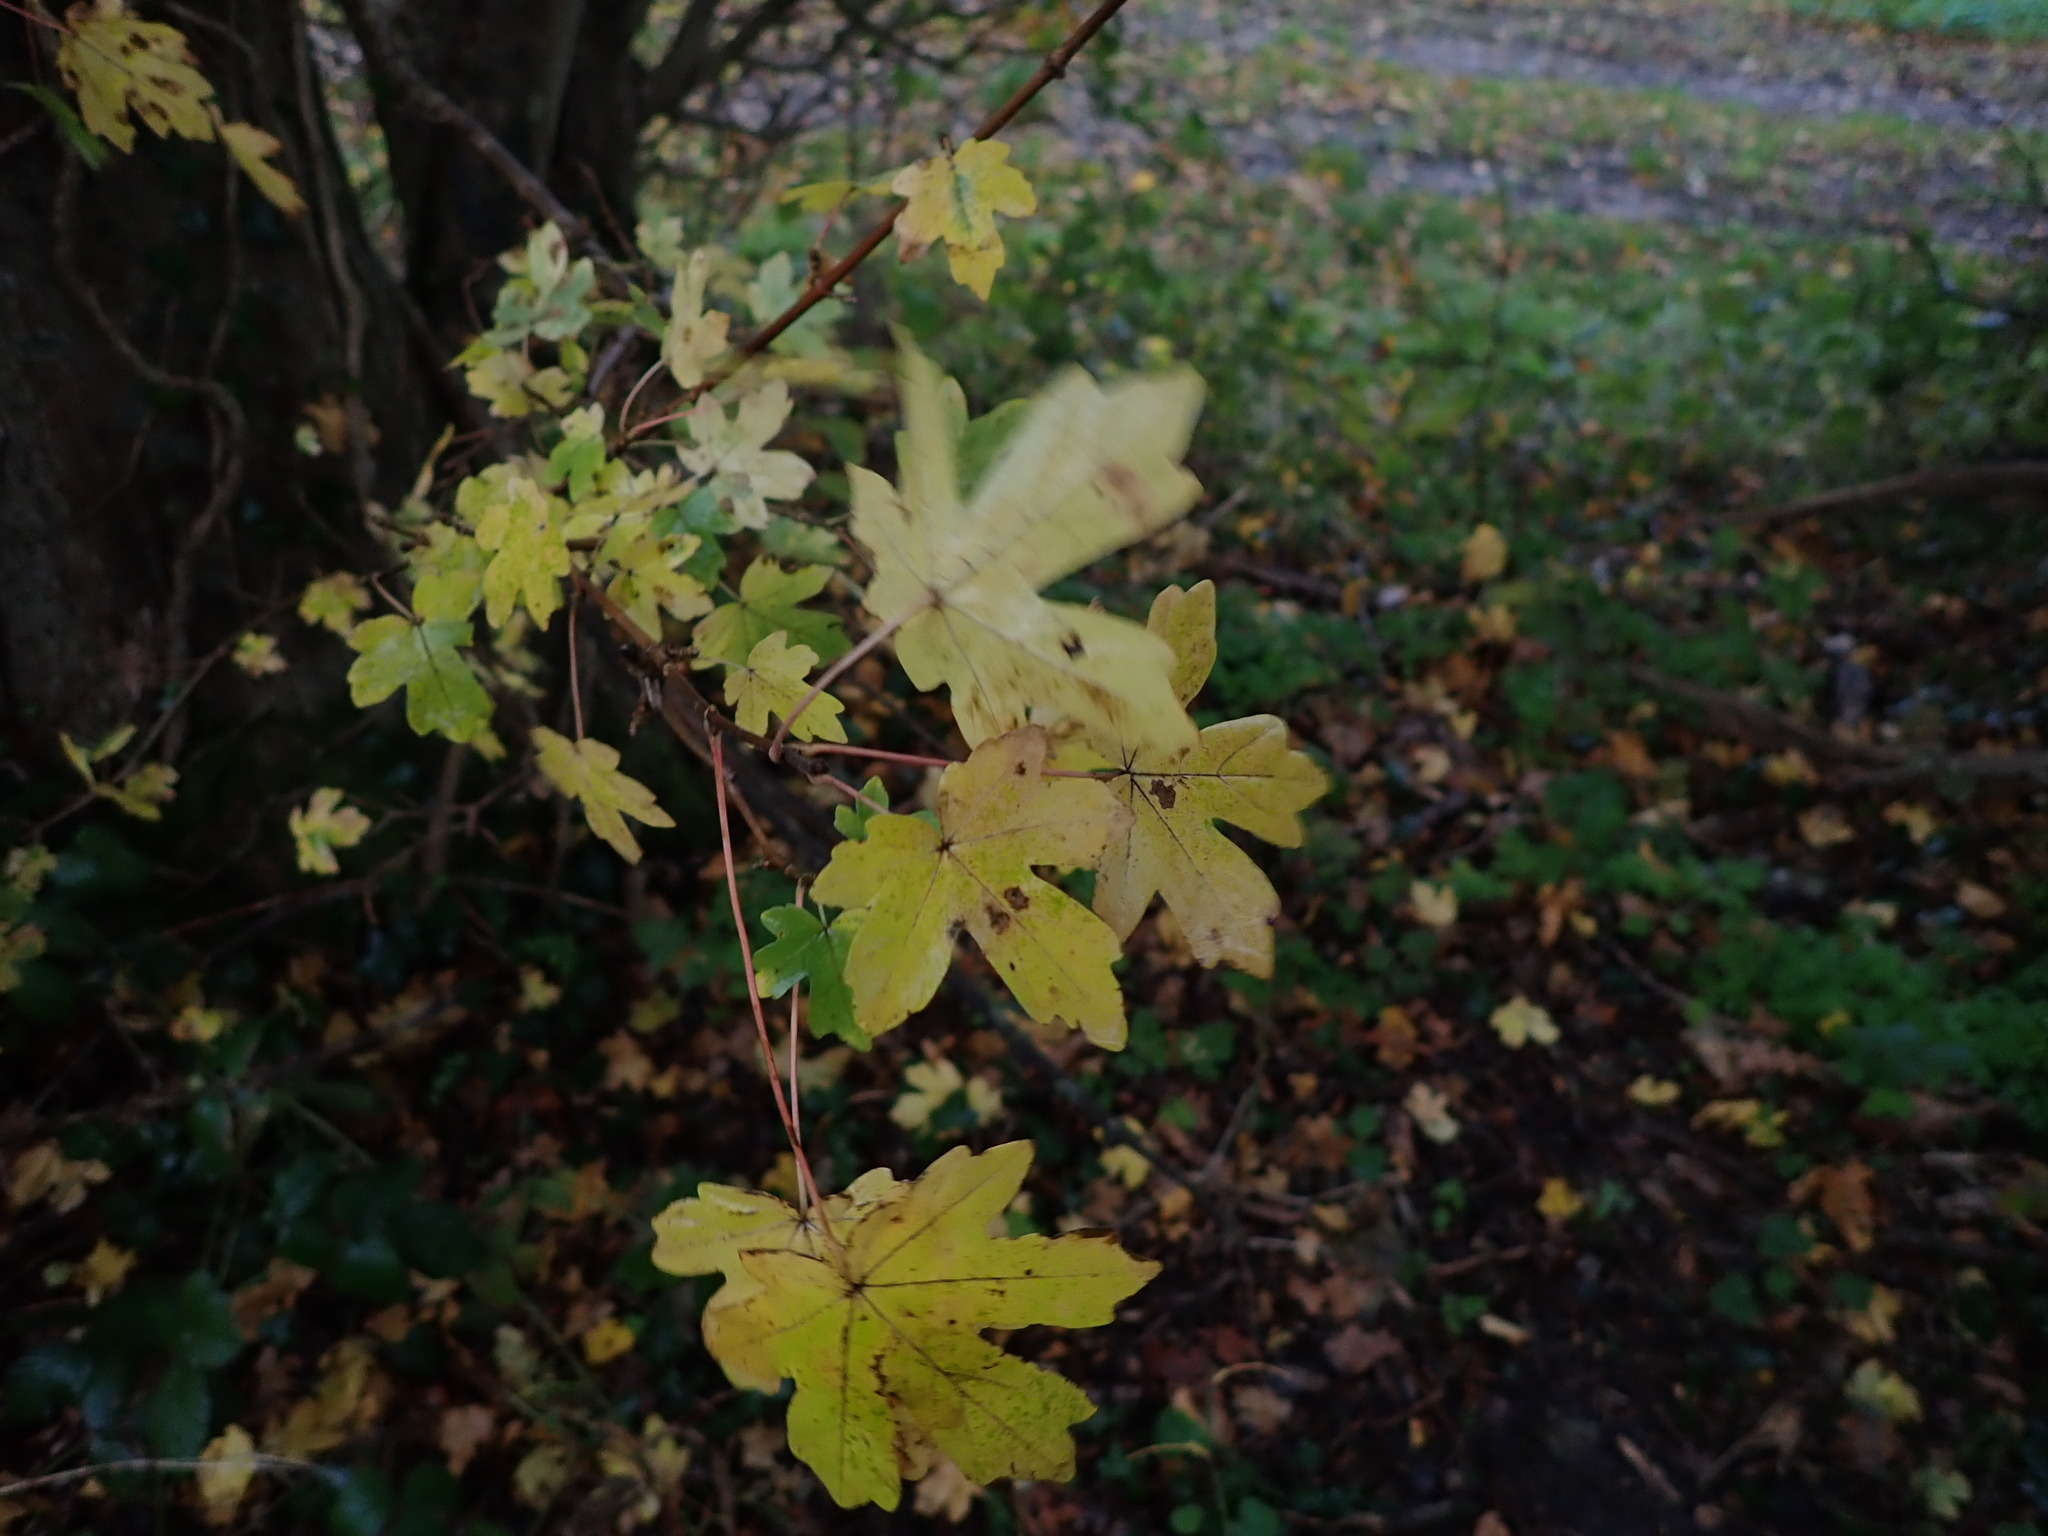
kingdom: Plantae
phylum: Tracheophyta
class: Magnoliopsida
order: Sapindales
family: Sapindaceae
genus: Acer
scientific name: Acer campestre
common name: Field maple
